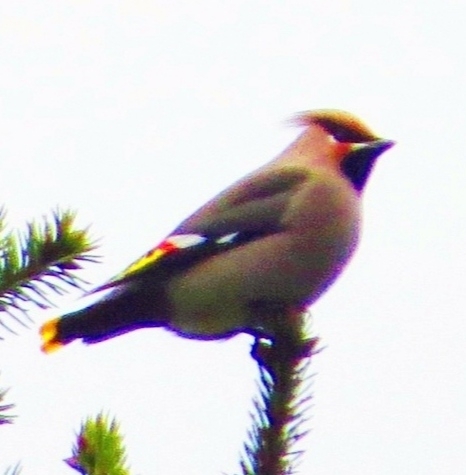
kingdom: Animalia
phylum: Chordata
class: Aves
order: Passeriformes
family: Bombycillidae
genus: Bombycilla
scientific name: Bombycilla garrulus
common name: Bohemian waxwing
